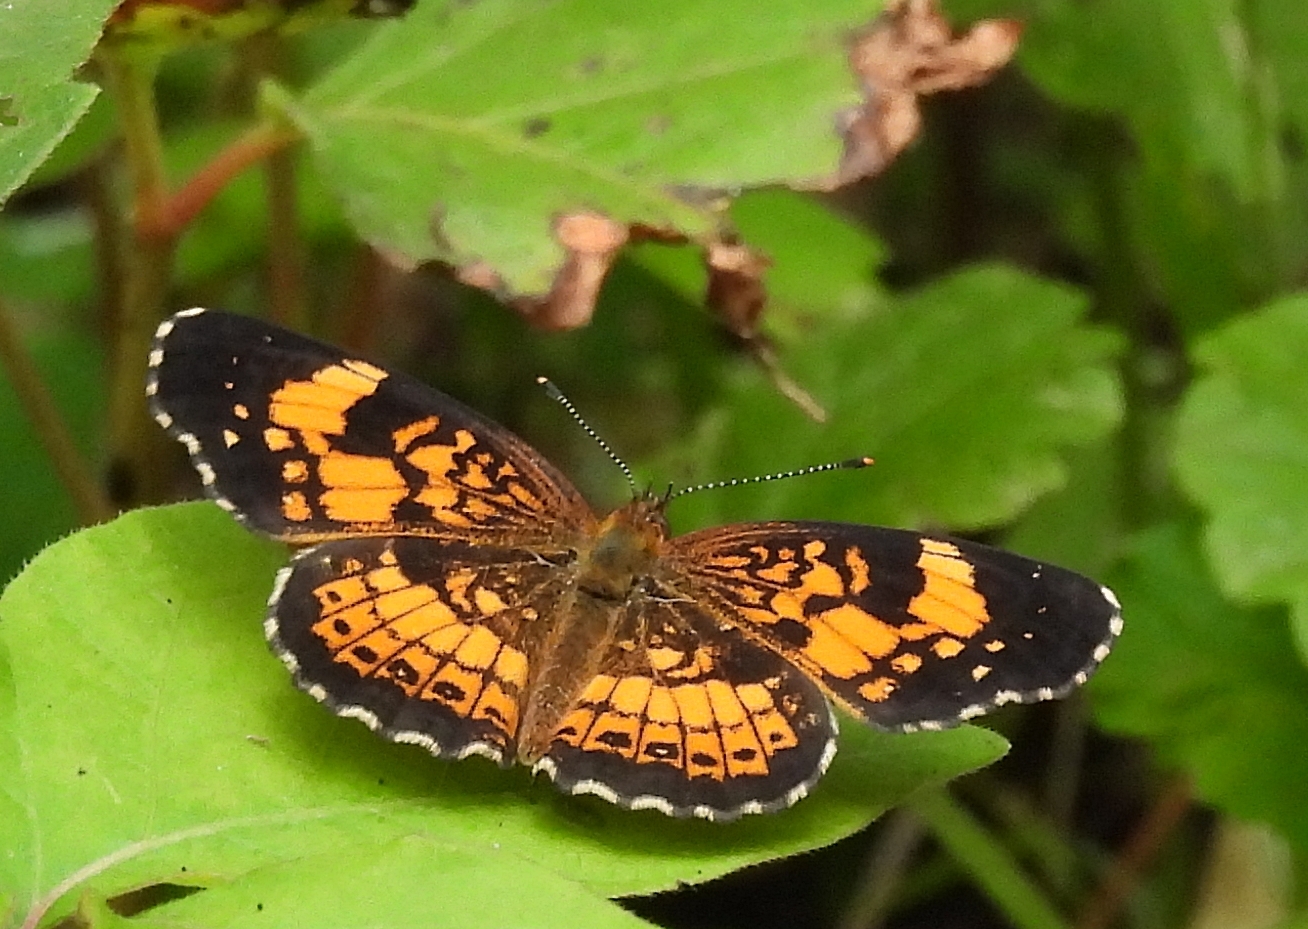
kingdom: Animalia
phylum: Arthropoda
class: Insecta
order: Lepidoptera
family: Nymphalidae
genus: Chlosyne
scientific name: Chlosyne nycteis
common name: Silvery checkerspot
